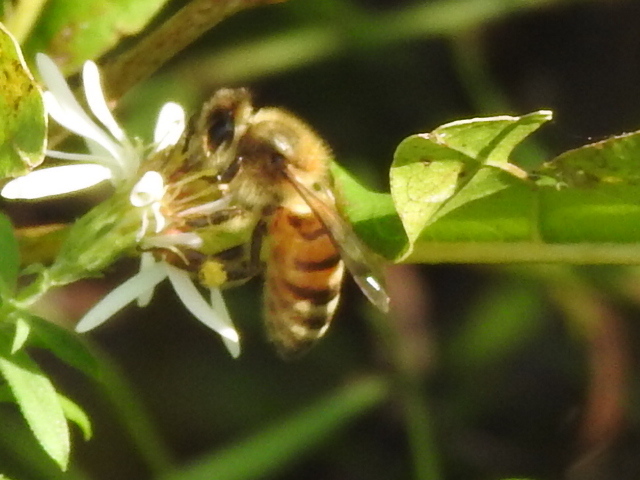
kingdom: Animalia
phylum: Arthropoda
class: Insecta
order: Hymenoptera
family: Apidae
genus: Apis
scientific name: Apis mellifera
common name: Honey bee
